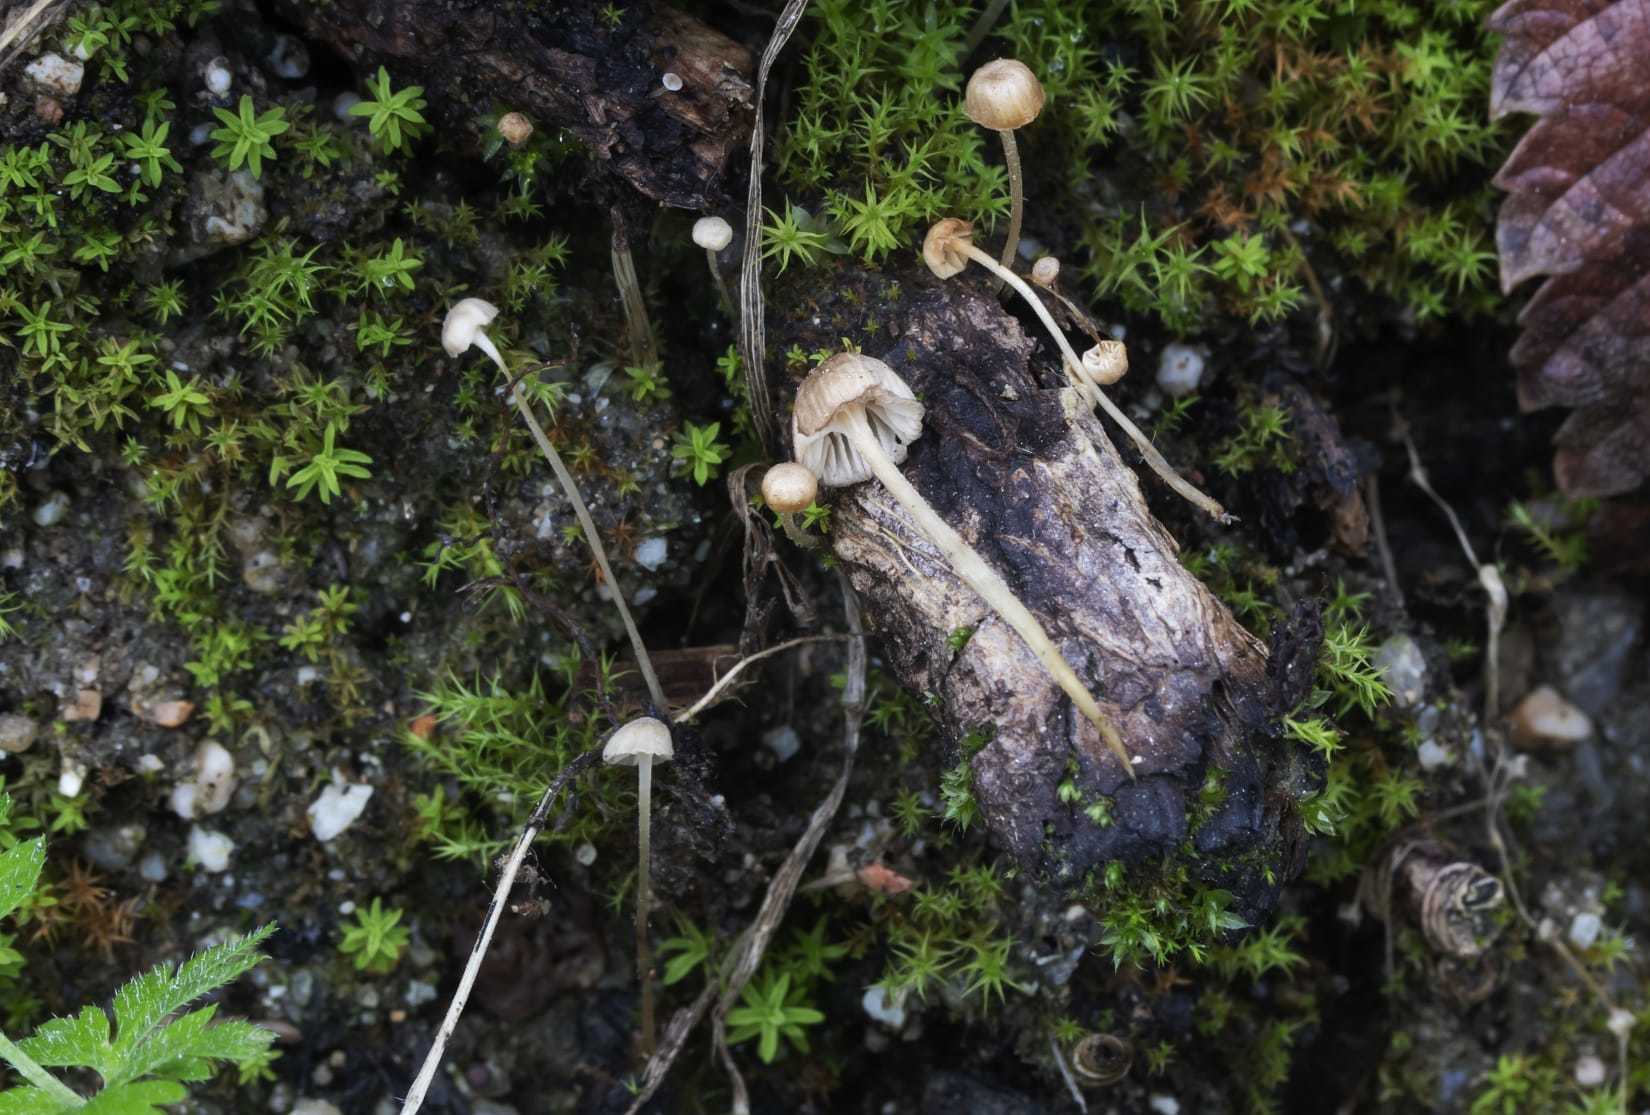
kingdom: Fungi
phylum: Basidiomycota
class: Agaricomycetes
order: Agaricales
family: Porotheleaceae
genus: Phloeomana
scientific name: Phloeomana speirea
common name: Bark bonnet
